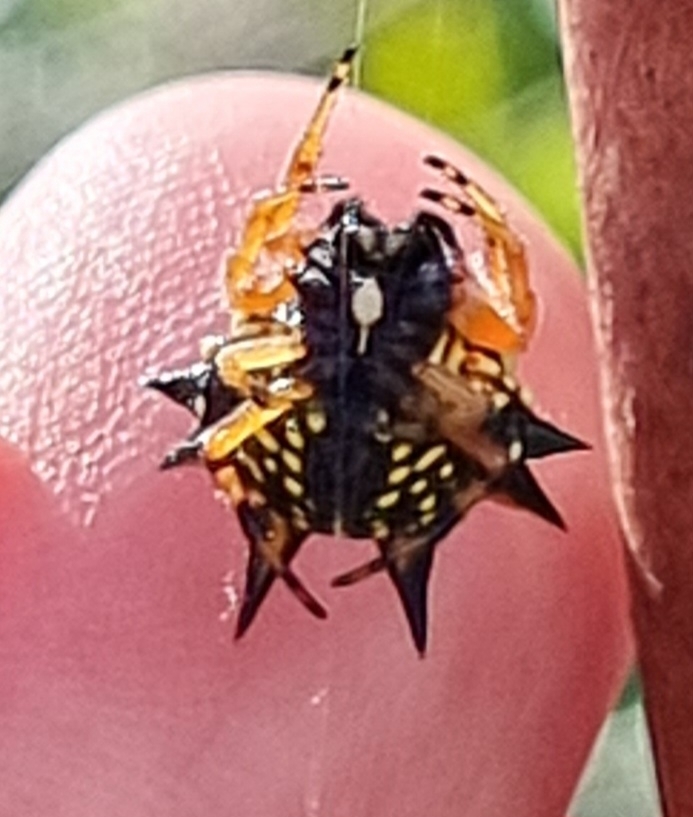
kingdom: Animalia
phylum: Arthropoda
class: Arachnida
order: Araneae
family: Araneidae
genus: Austracantha
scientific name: Austracantha minax
